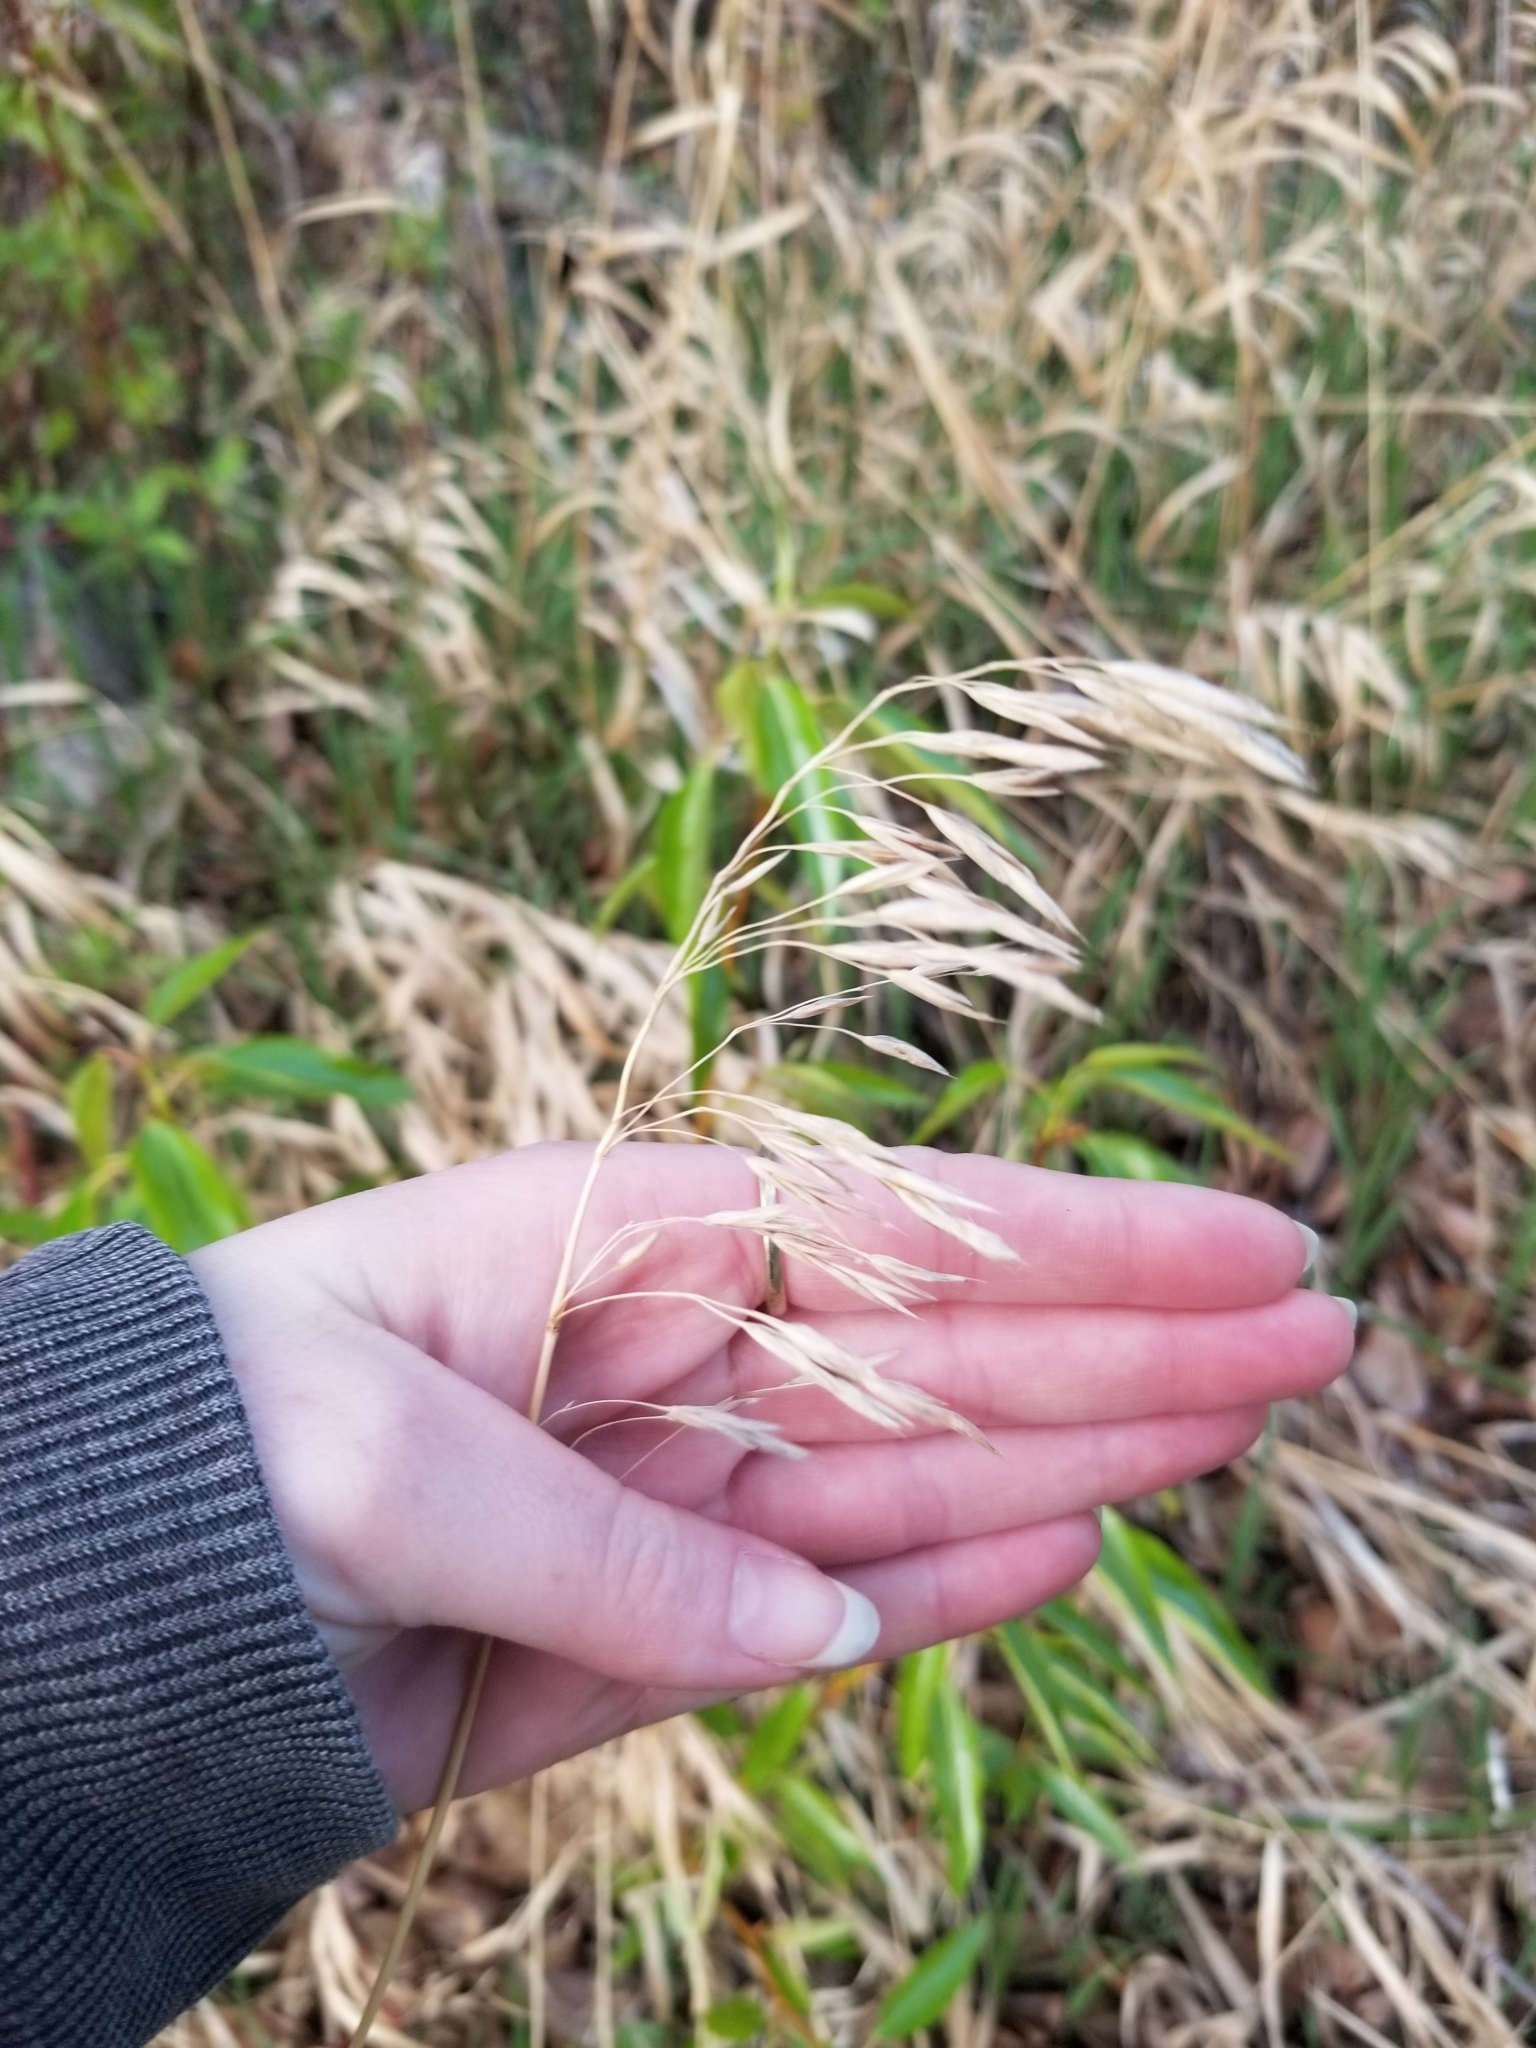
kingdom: Plantae
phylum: Tracheophyta
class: Liliopsida
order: Poales
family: Poaceae
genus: Bromus
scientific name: Bromus inermis
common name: Smooth brome
